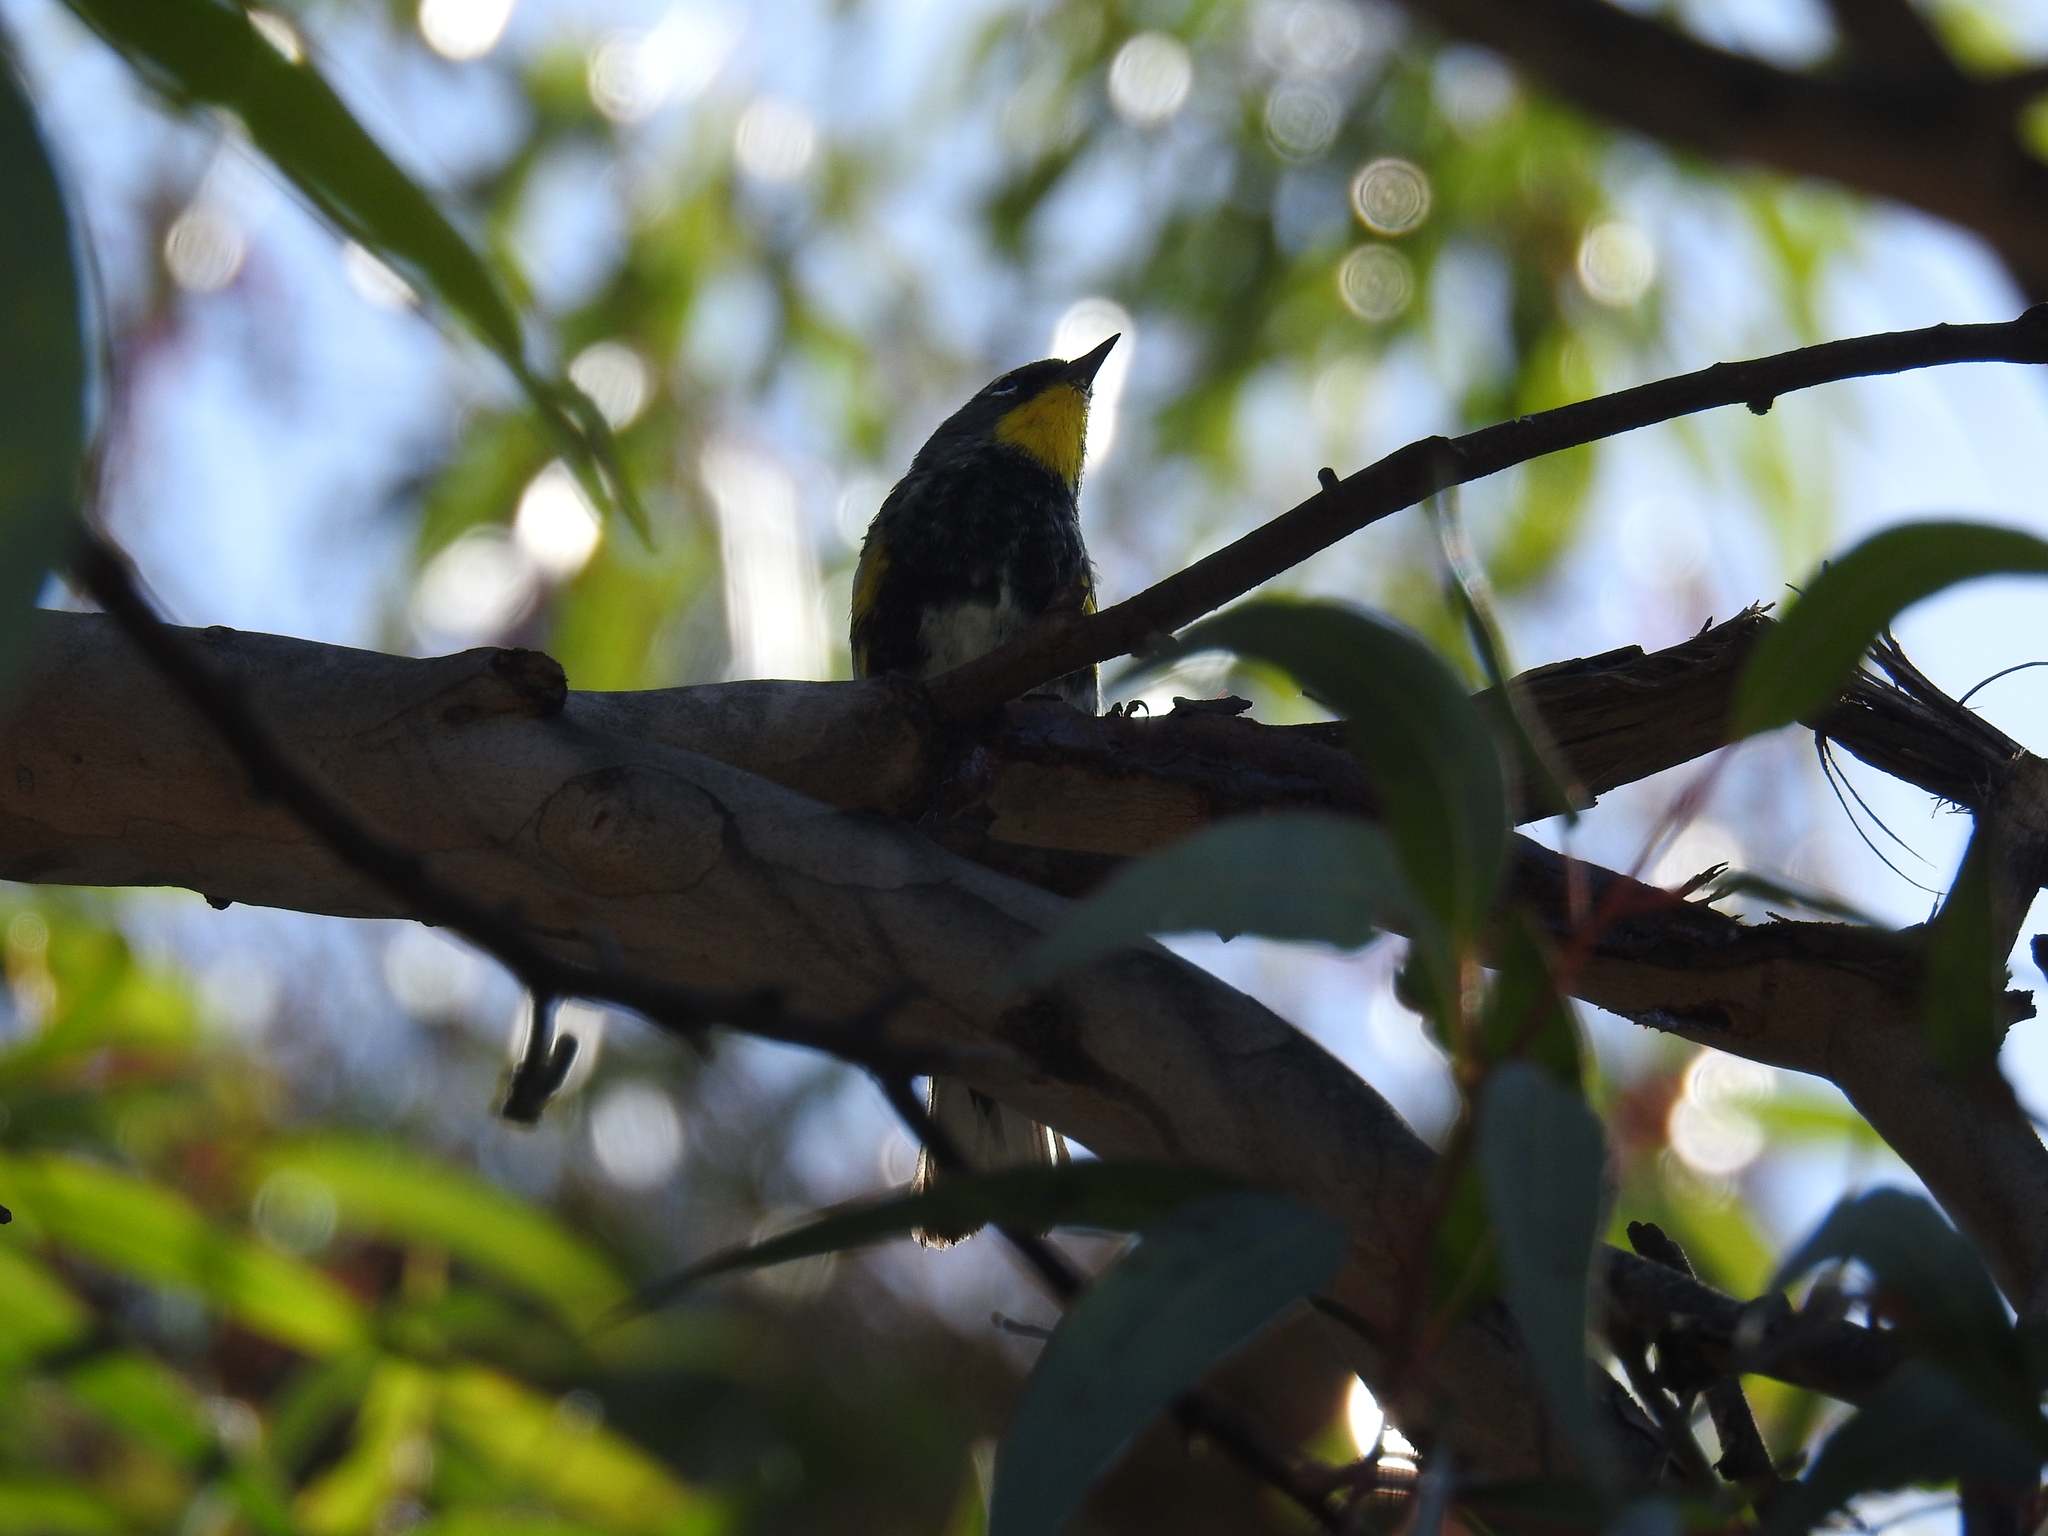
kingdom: Animalia
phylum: Chordata
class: Aves
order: Passeriformes
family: Parulidae
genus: Setophaga
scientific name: Setophaga coronata
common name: Myrtle warbler
